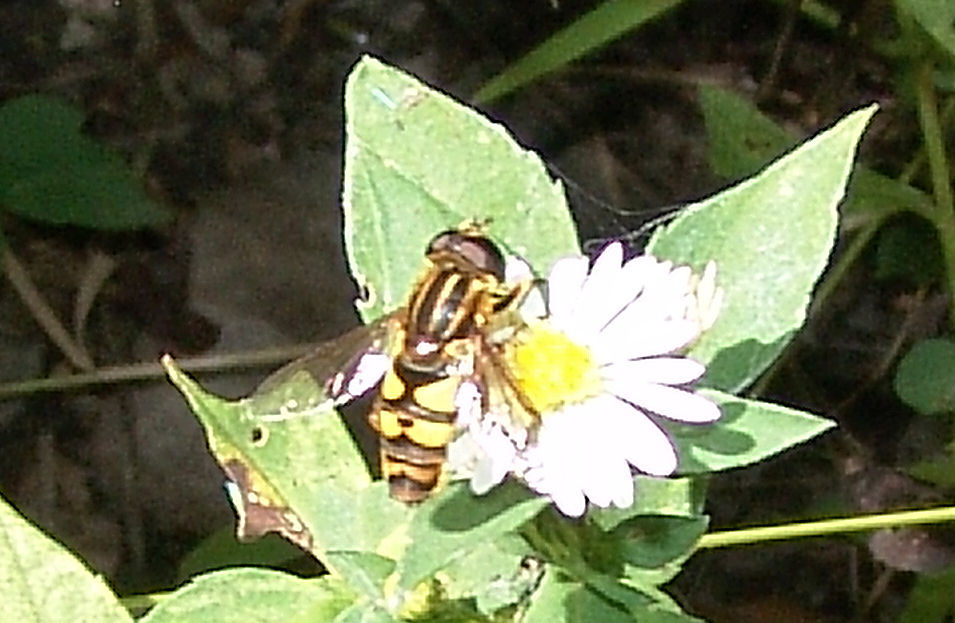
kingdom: Animalia
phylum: Arthropoda
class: Insecta
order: Diptera
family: Syrphidae
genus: Helophilus
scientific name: Helophilus fasciatus
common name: Narrow-headed marsh fly
